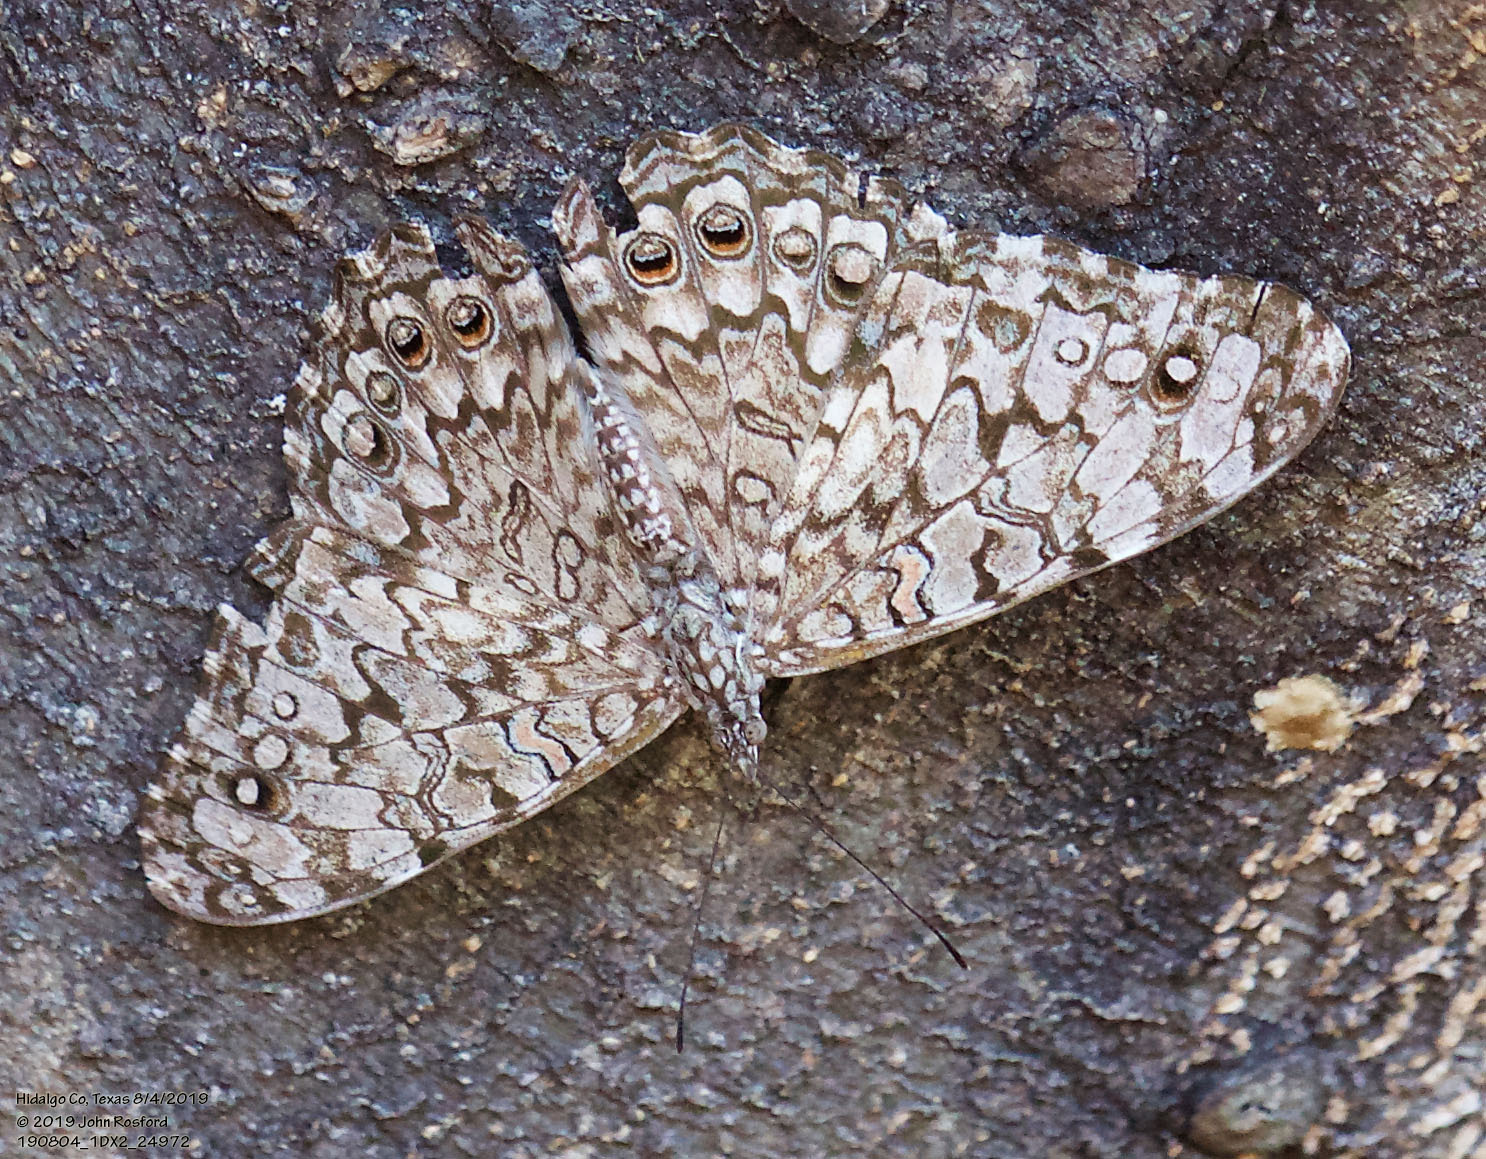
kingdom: Animalia
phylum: Arthropoda
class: Insecta
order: Lepidoptera
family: Nymphalidae
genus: Hamadryas
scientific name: Hamadryas februa
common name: Gray cracker
